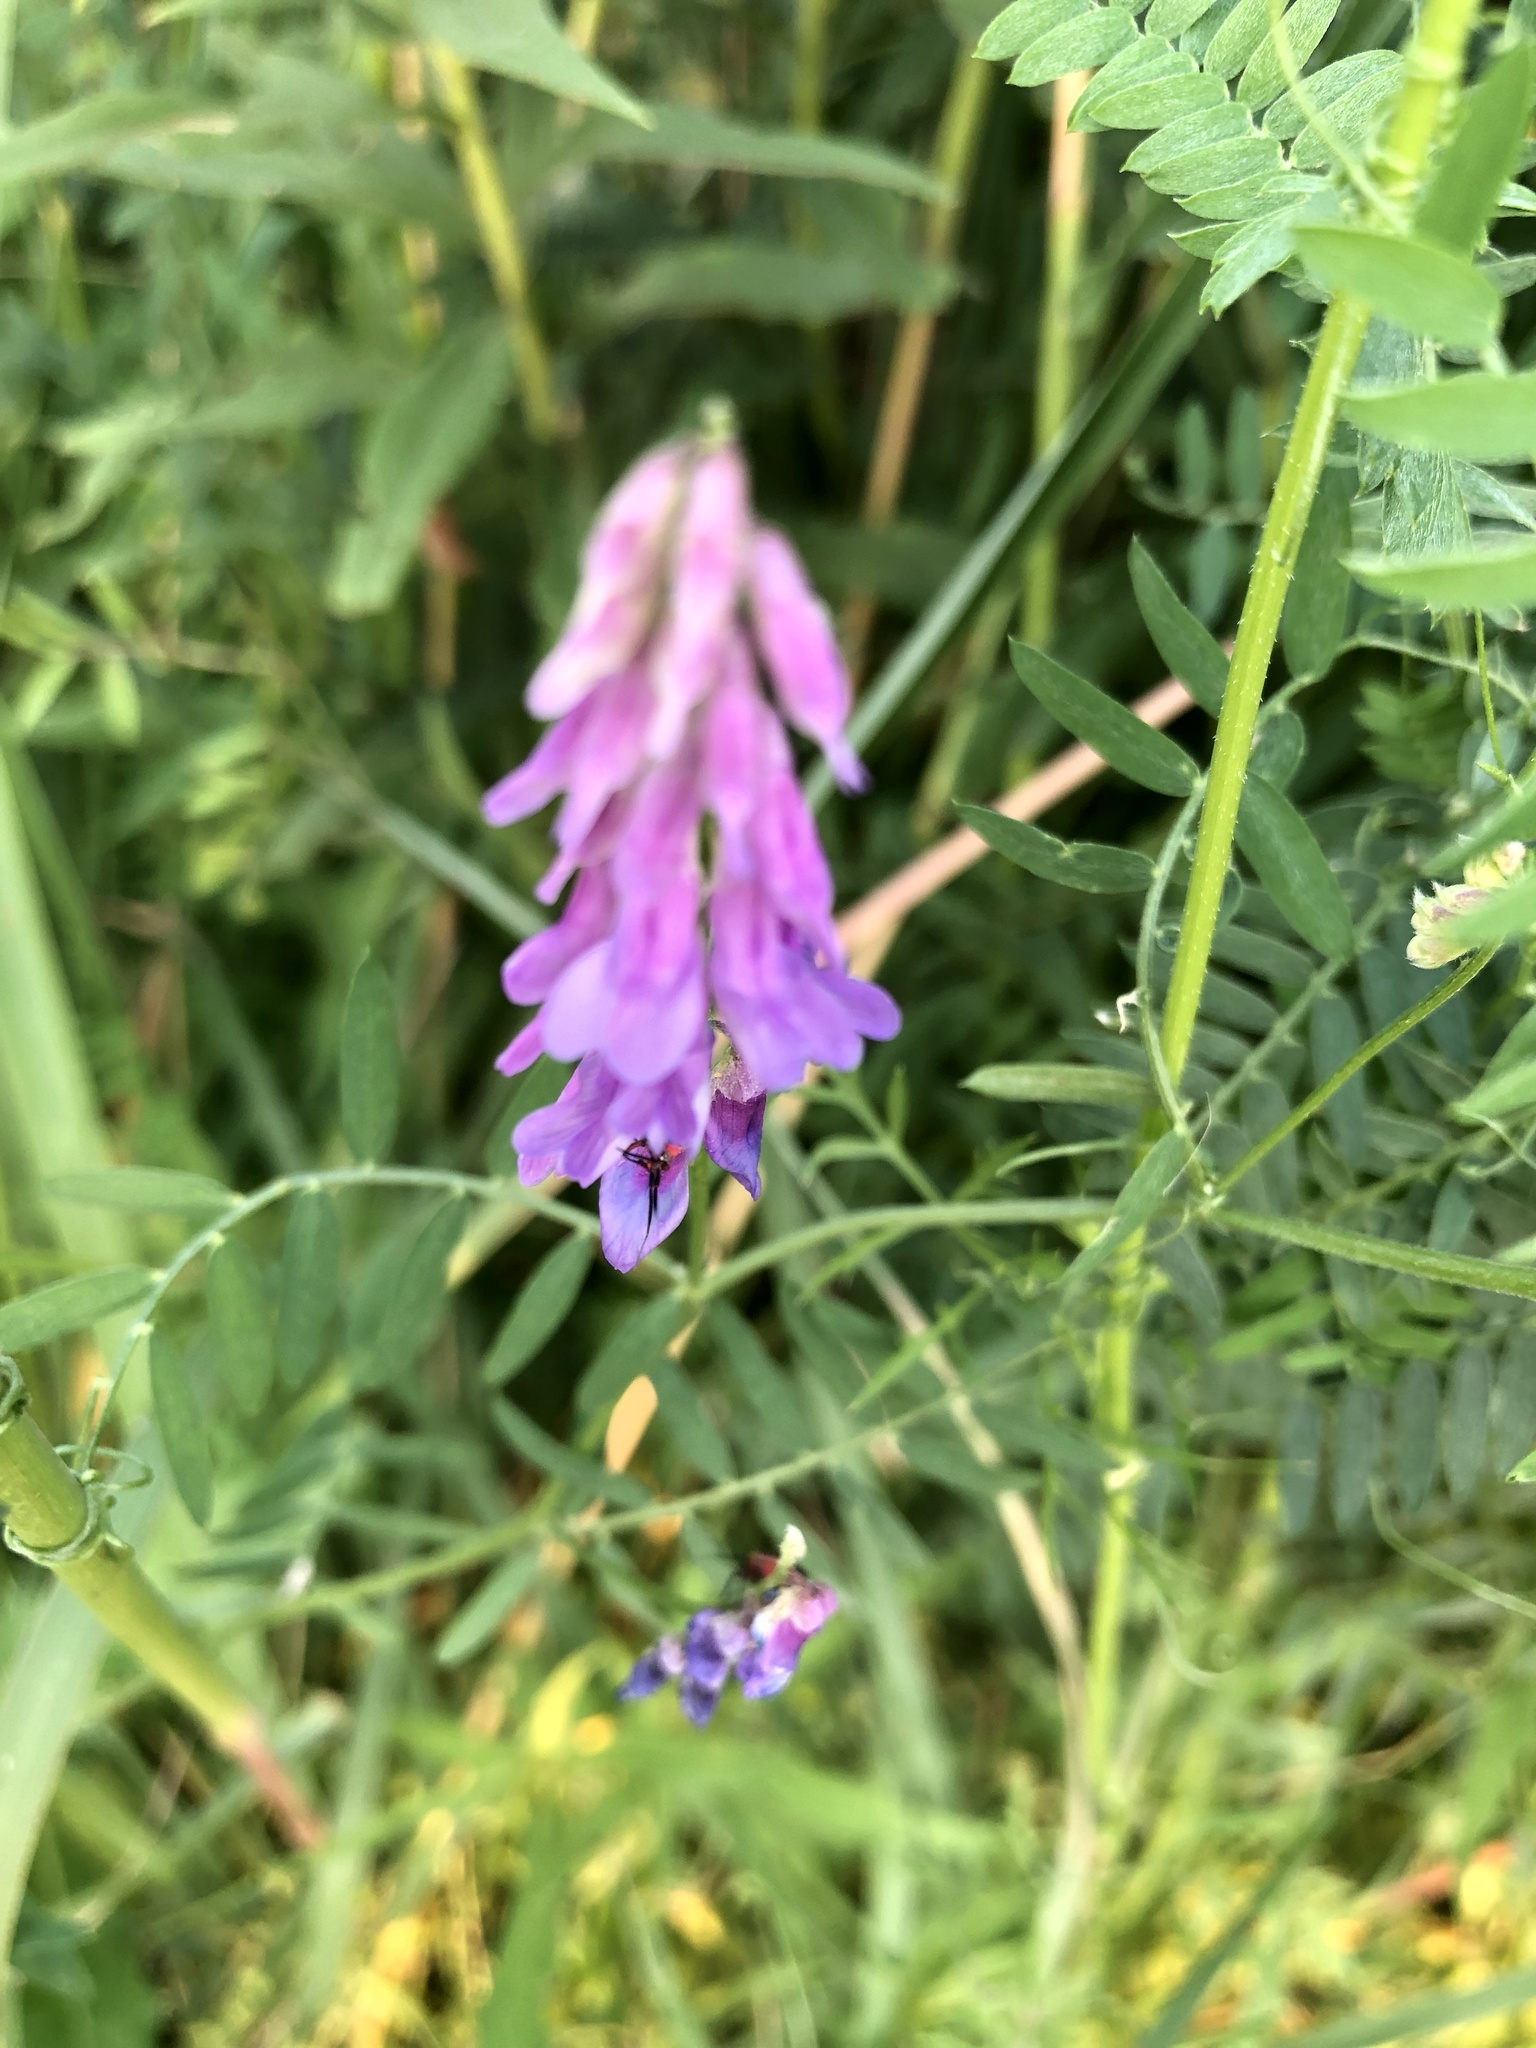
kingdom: Plantae
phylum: Tracheophyta
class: Magnoliopsida
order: Fabales
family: Fabaceae
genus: Vicia
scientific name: Vicia cracca
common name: Bird vetch
